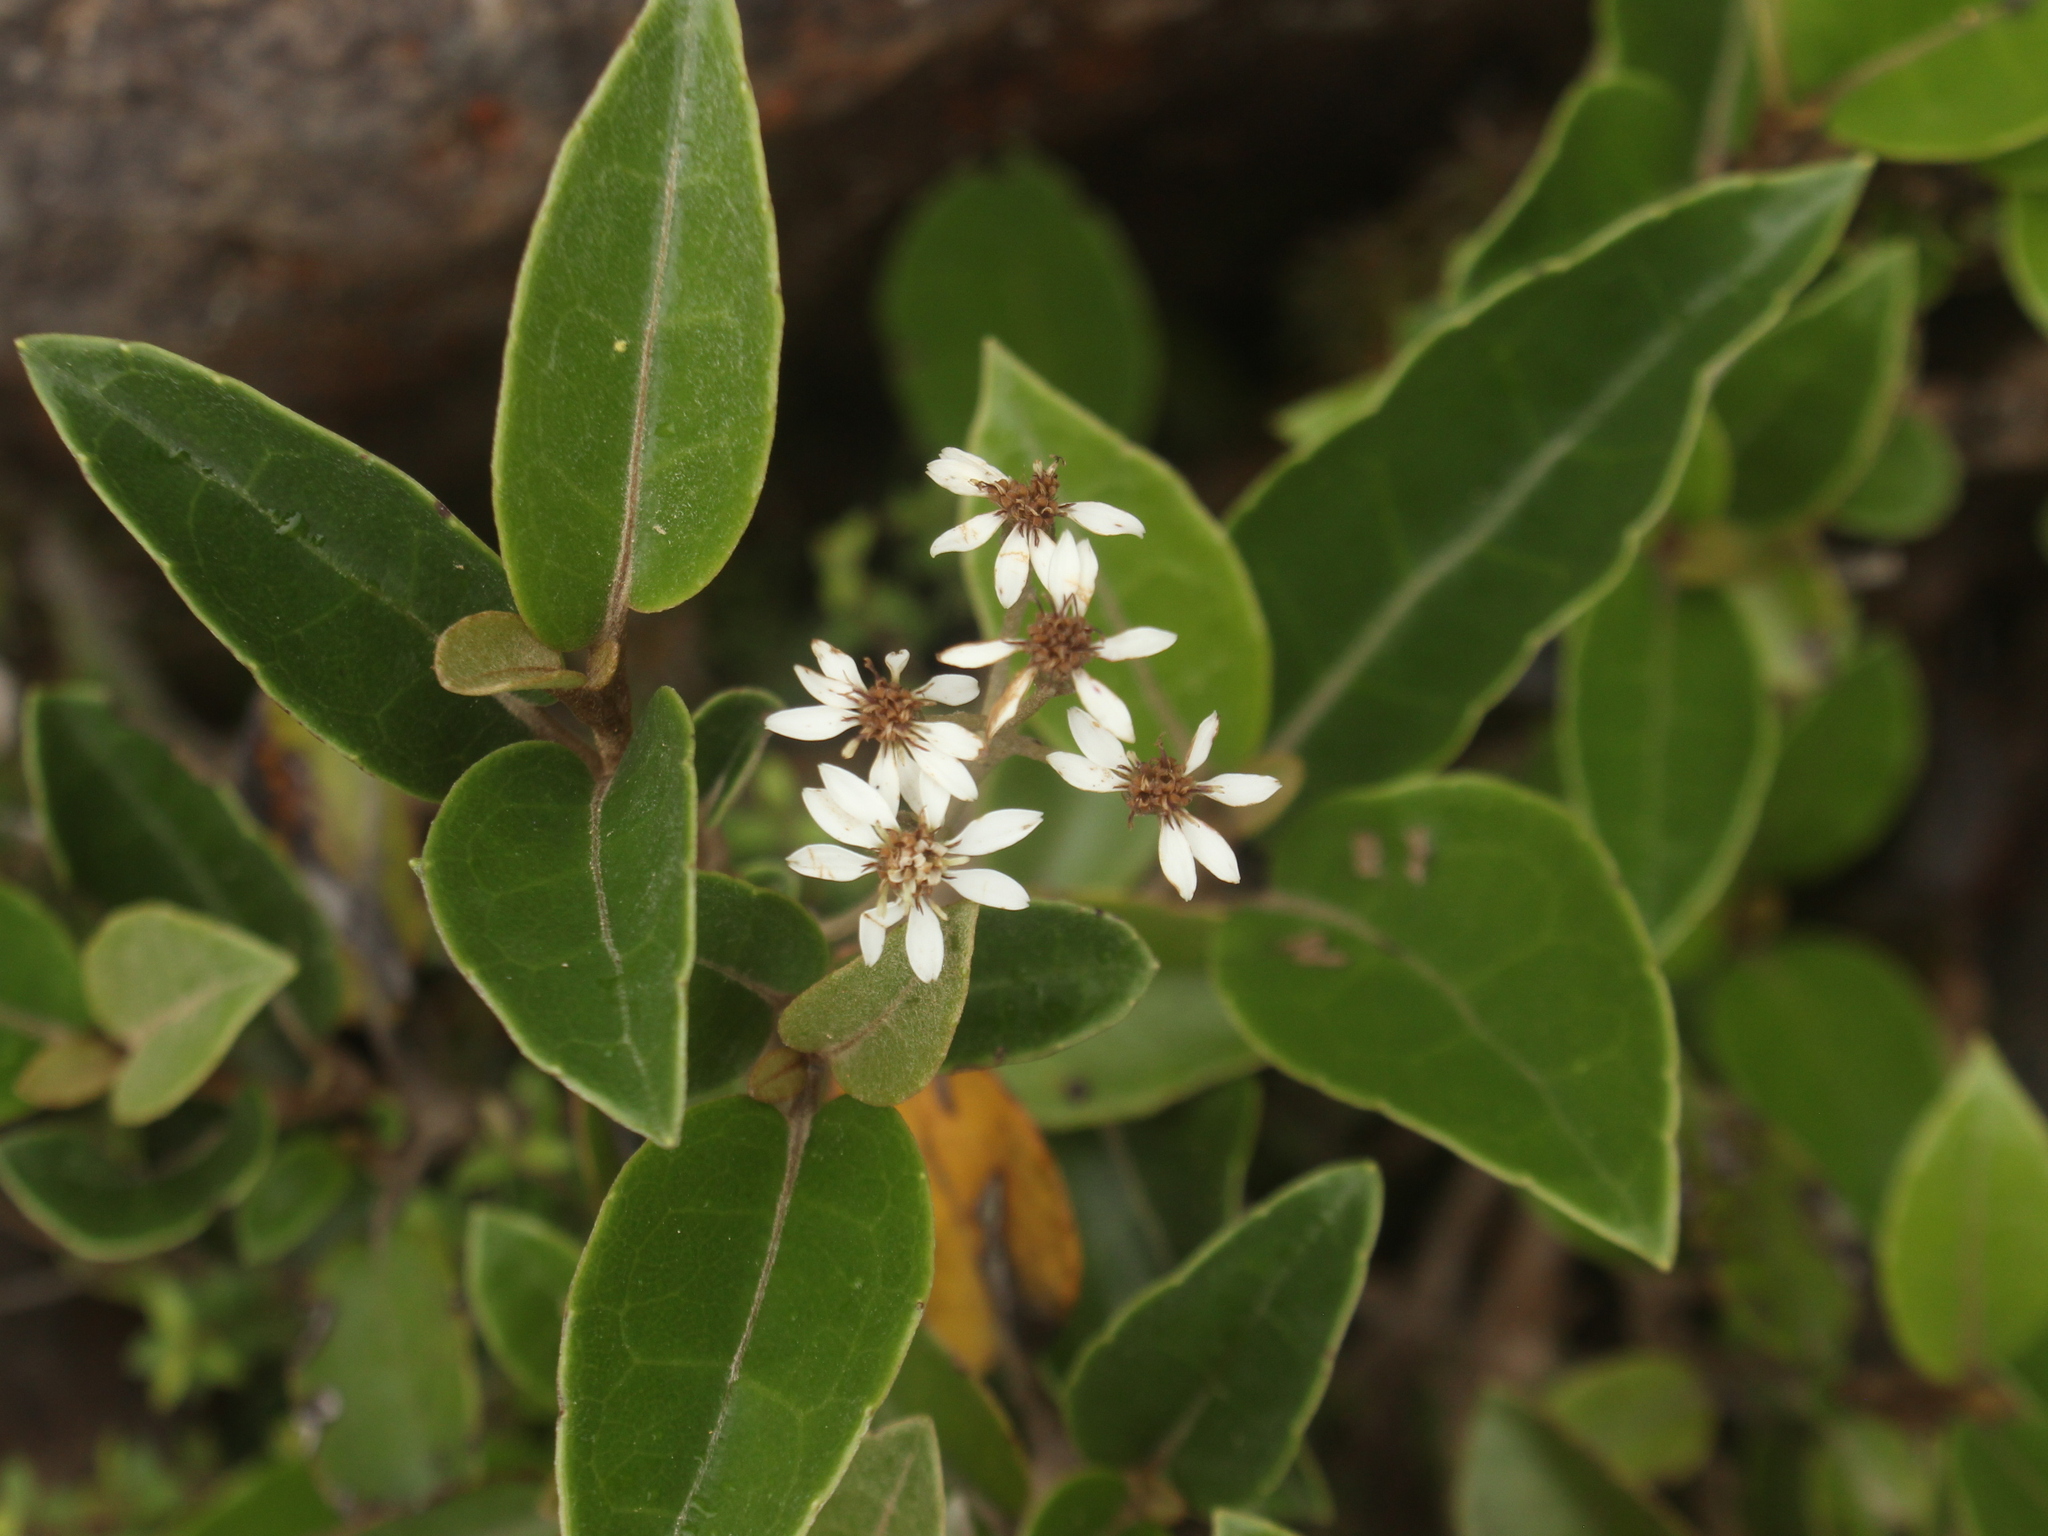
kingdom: Plantae
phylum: Tracheophyta
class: Magnoliopsida
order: Asterales
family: Asteraceae
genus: Olearia
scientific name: Olearia arborescens
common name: Glossy tree daisy
